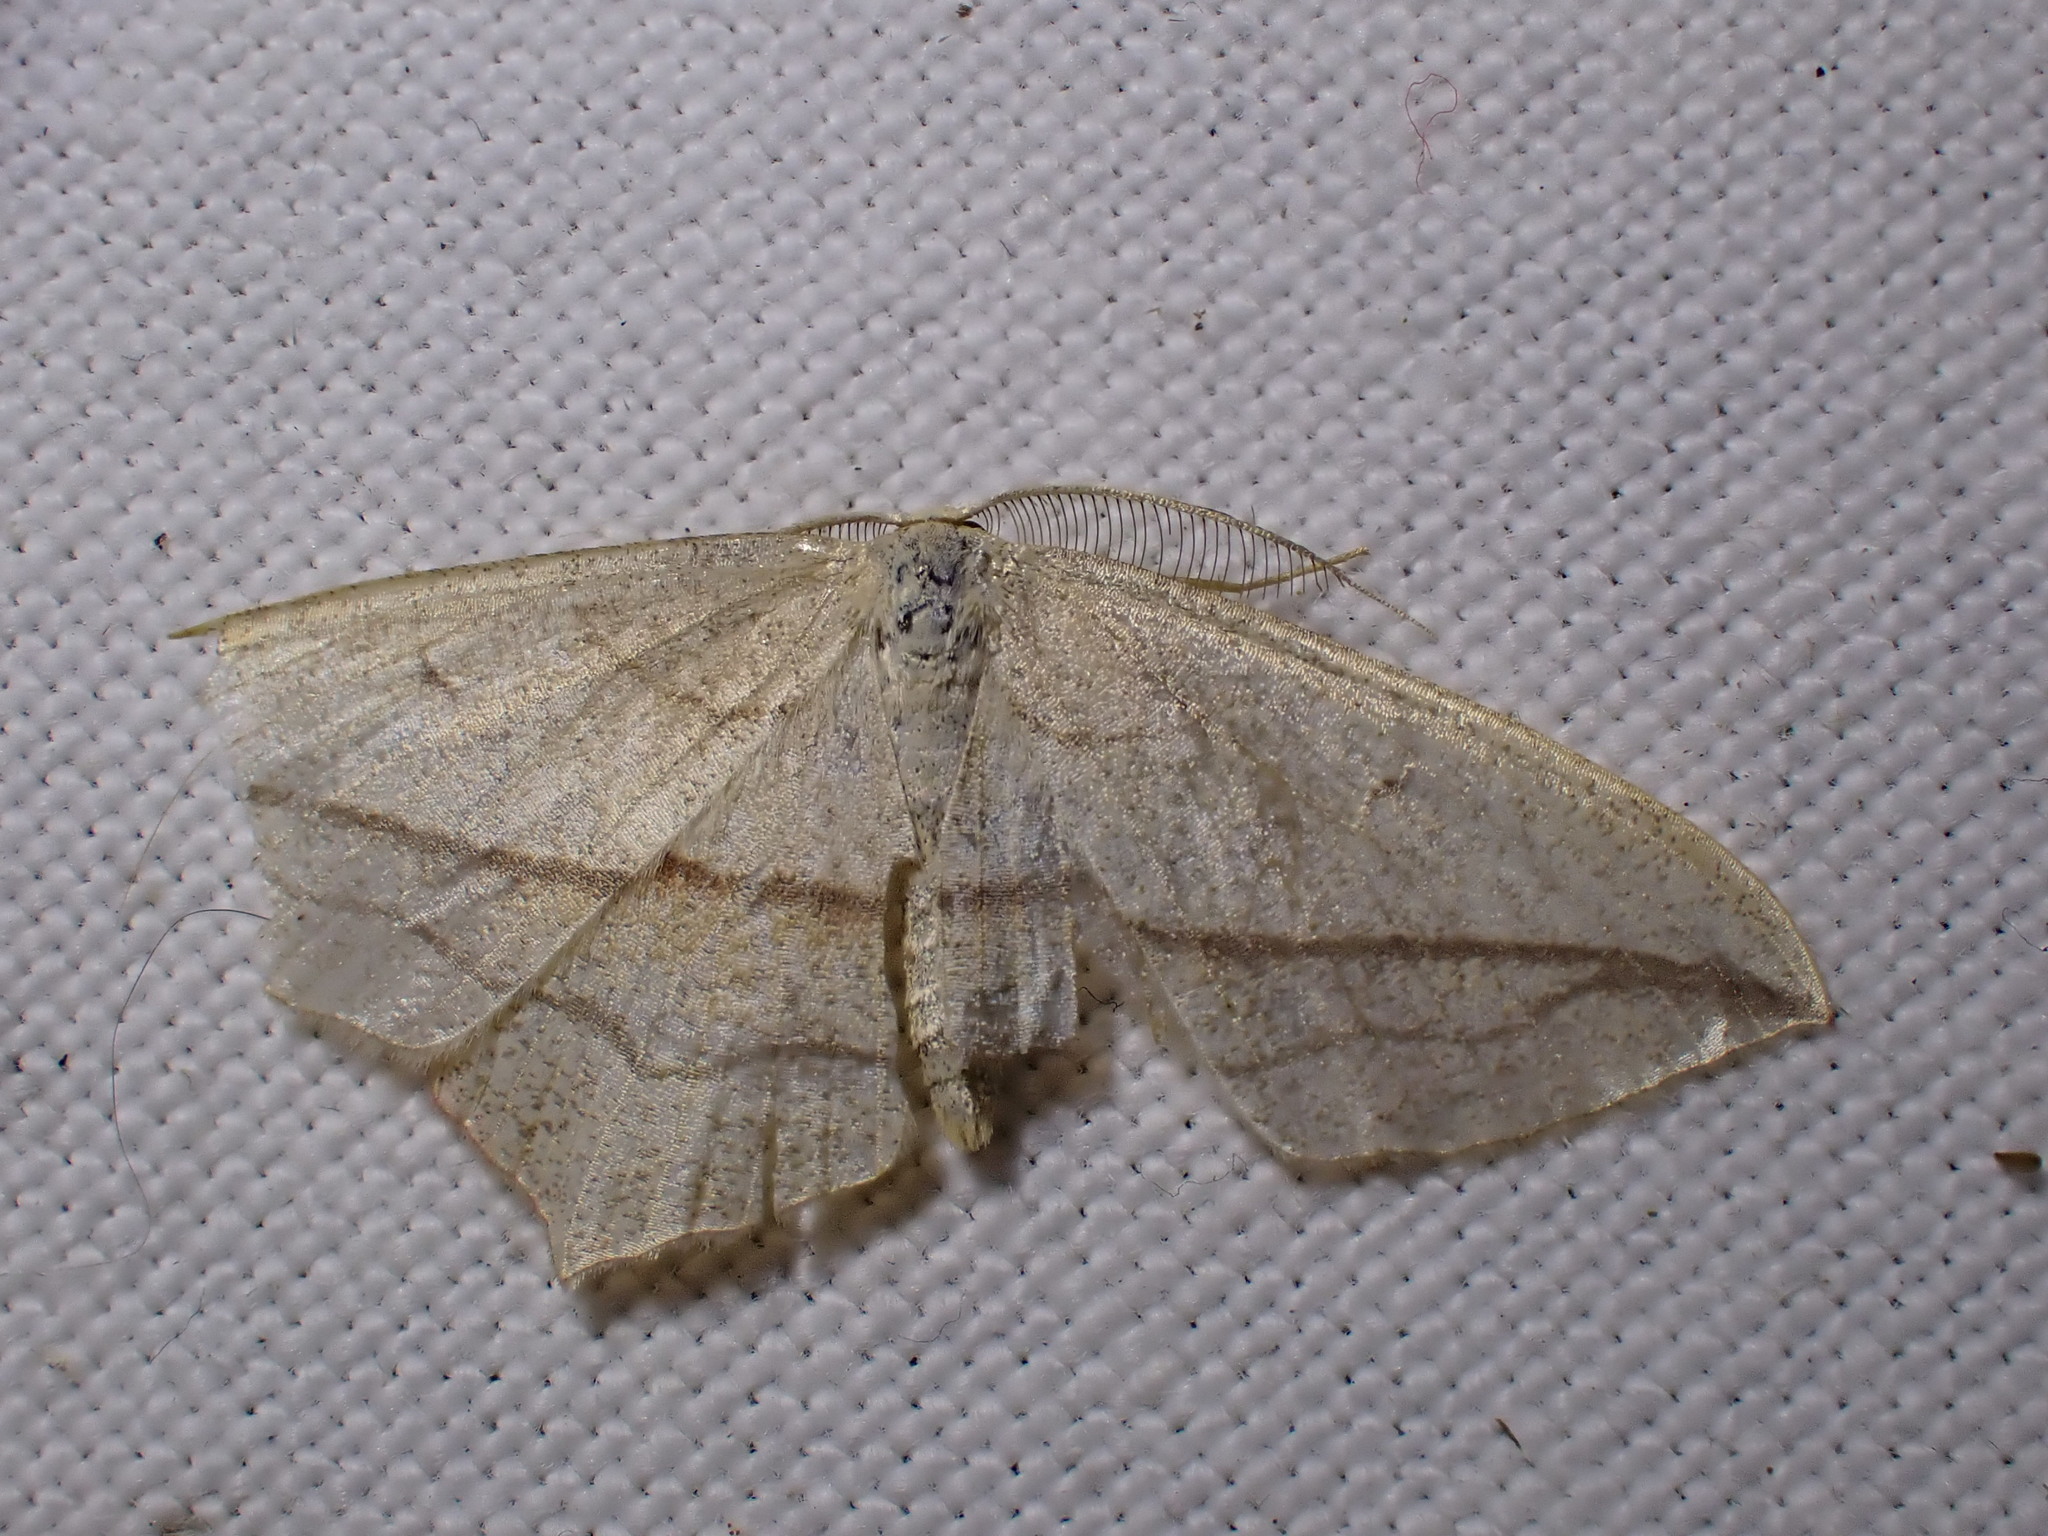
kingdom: Animalia
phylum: Arthropoda
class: Insecta
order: Lepidoptera
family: Geometridae
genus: Timandra
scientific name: Timandra comae
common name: Blood-vein
